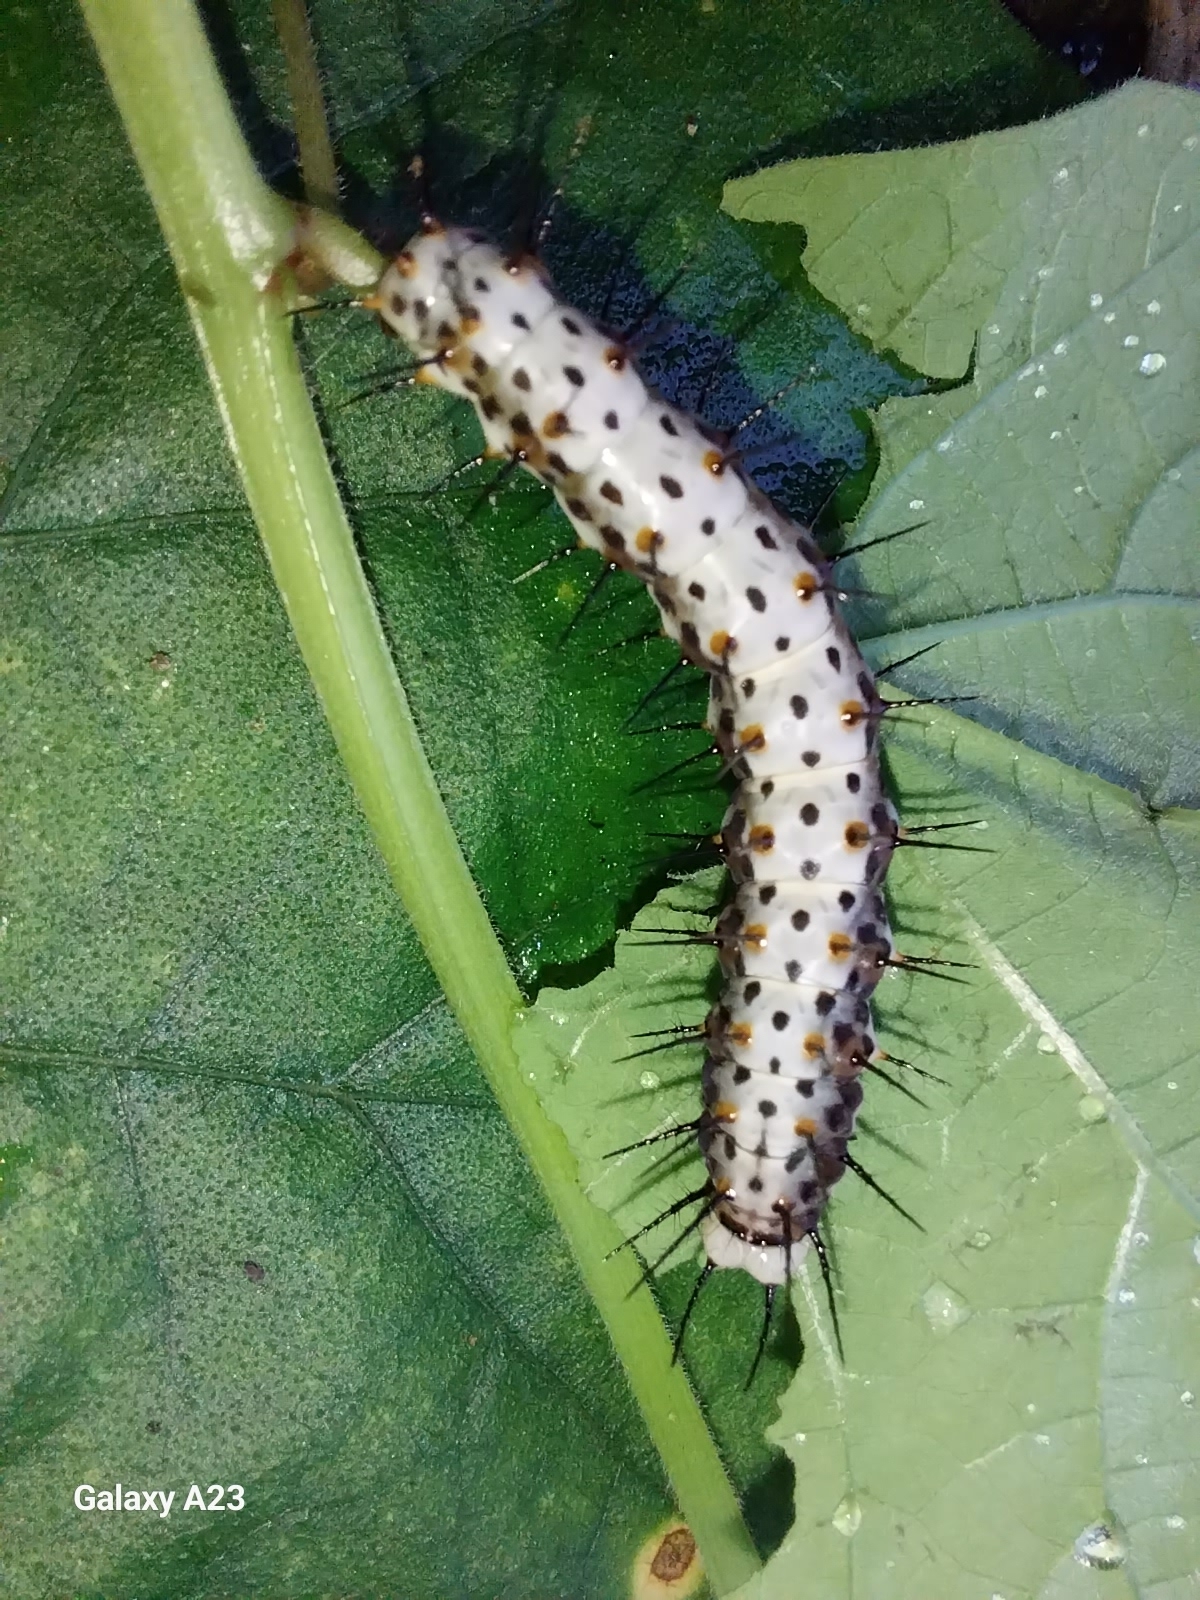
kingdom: Animalia
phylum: Arthropoda
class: Insecta
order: Lepidoptera
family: Nymphalidae
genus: Heliconius
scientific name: Heliconius erato
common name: Common patch longwing
